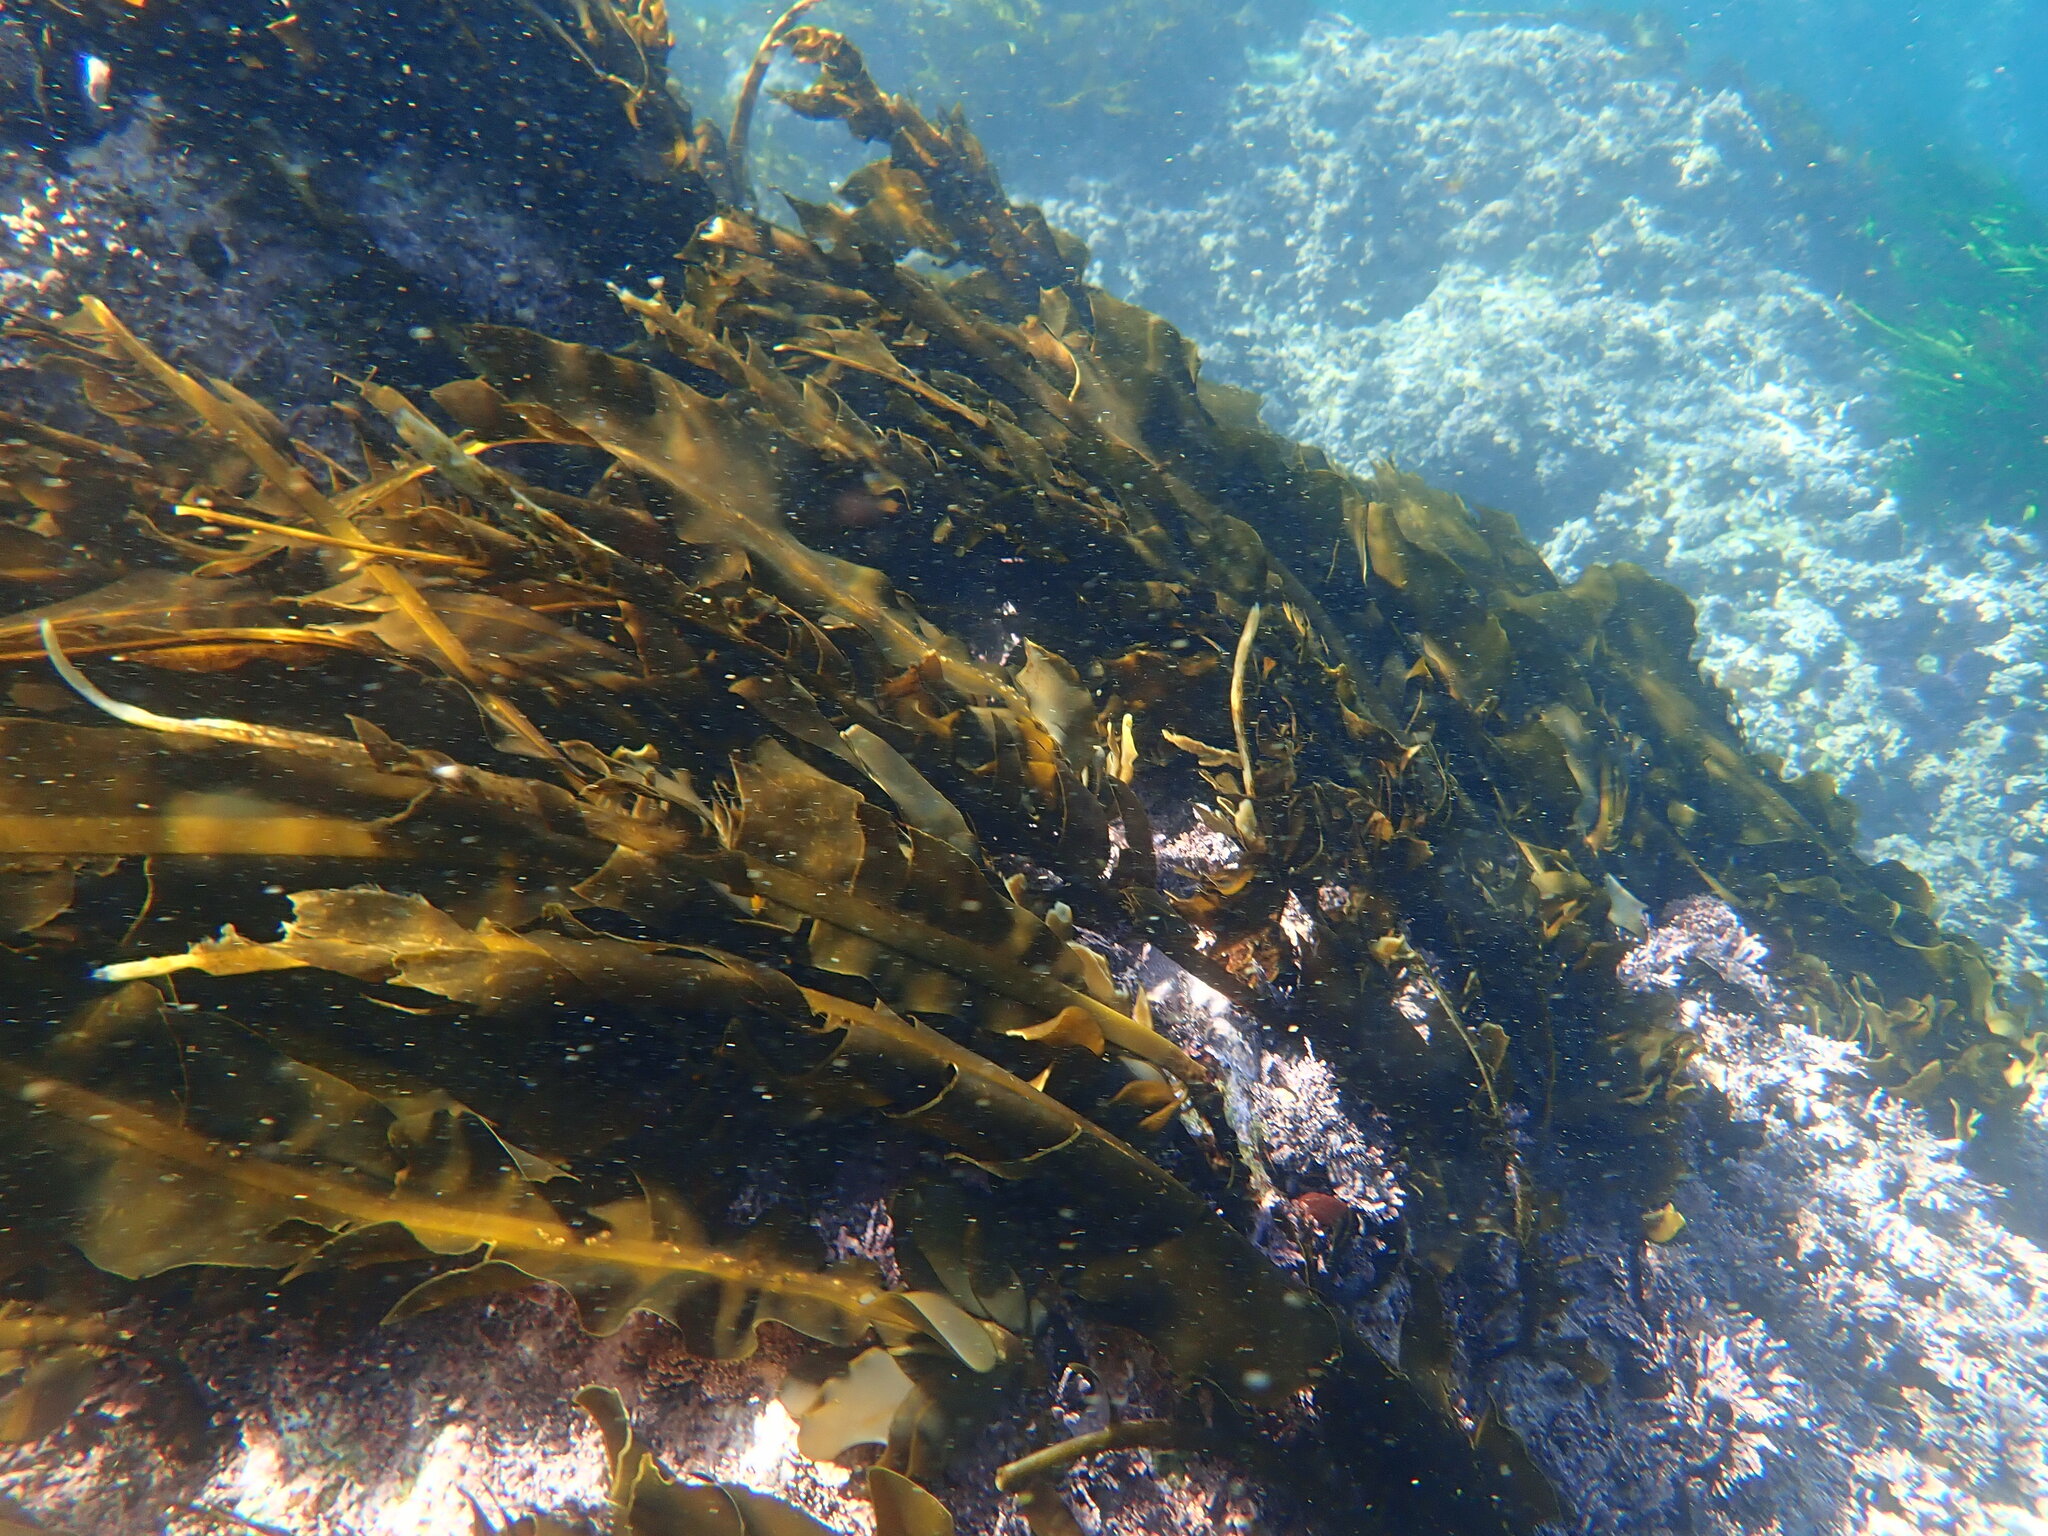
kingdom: Chromista
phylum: Ochrophyta
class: Phaeophyceae
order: Laminariales
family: Alariaceae
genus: Alaria
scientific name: Alaria marginata
